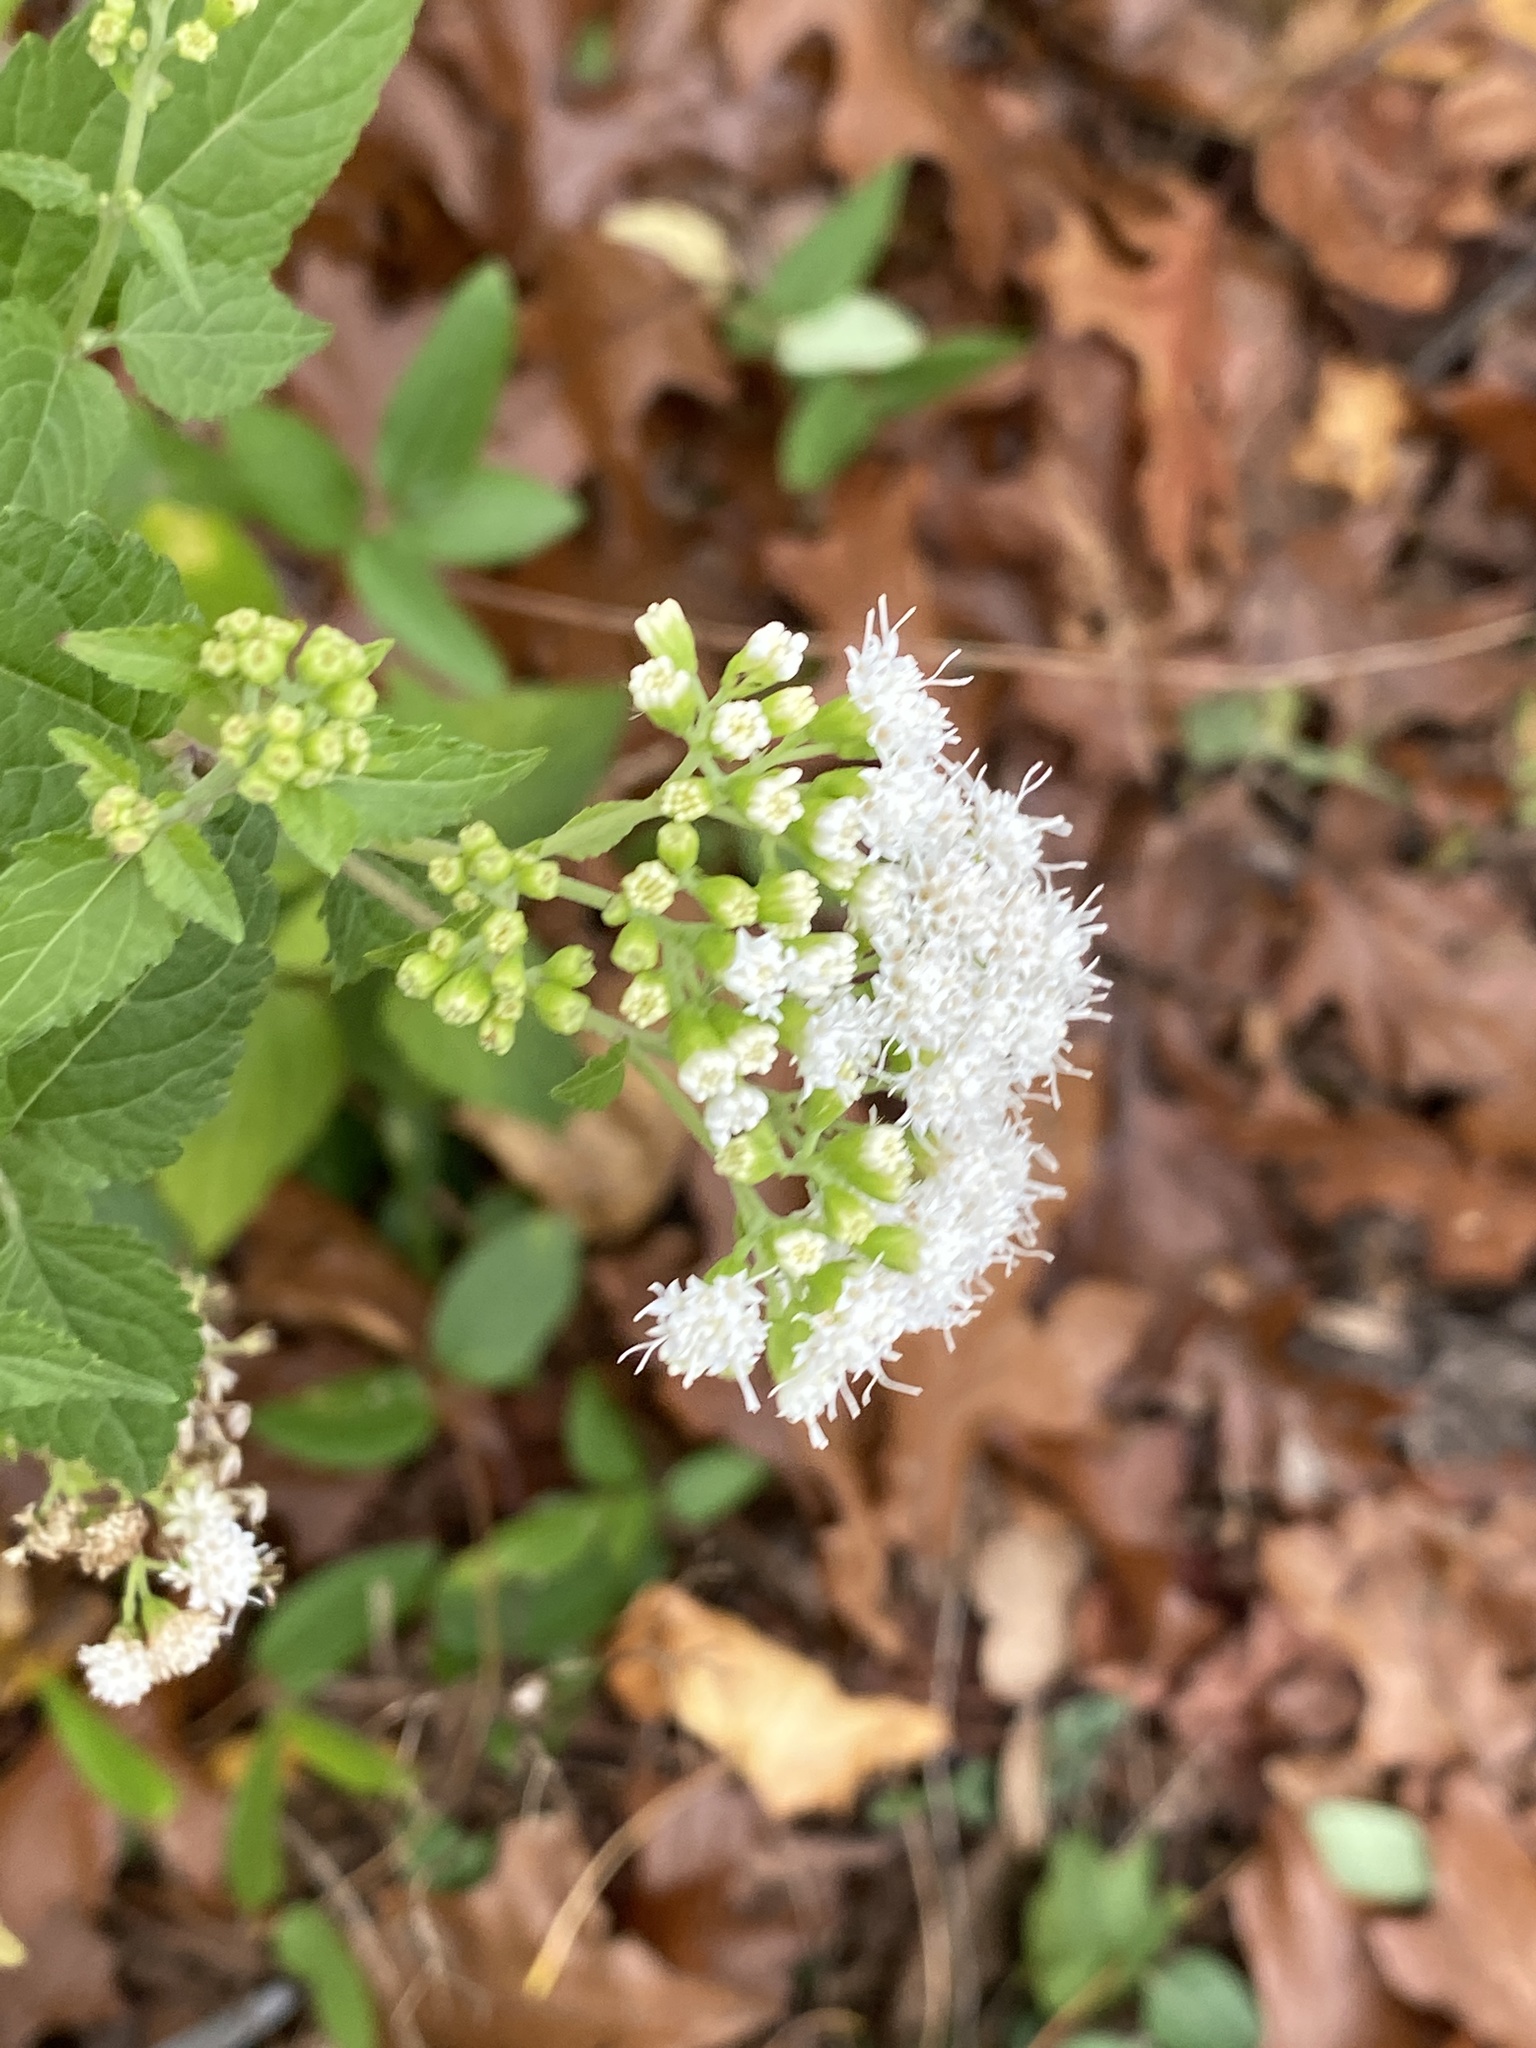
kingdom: Plantae
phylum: Tracheophyta
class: Magnoliopsida
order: Asterales
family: Asteraceae
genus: Ageratina
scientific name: Ageratina altissima
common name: White snakeroot
